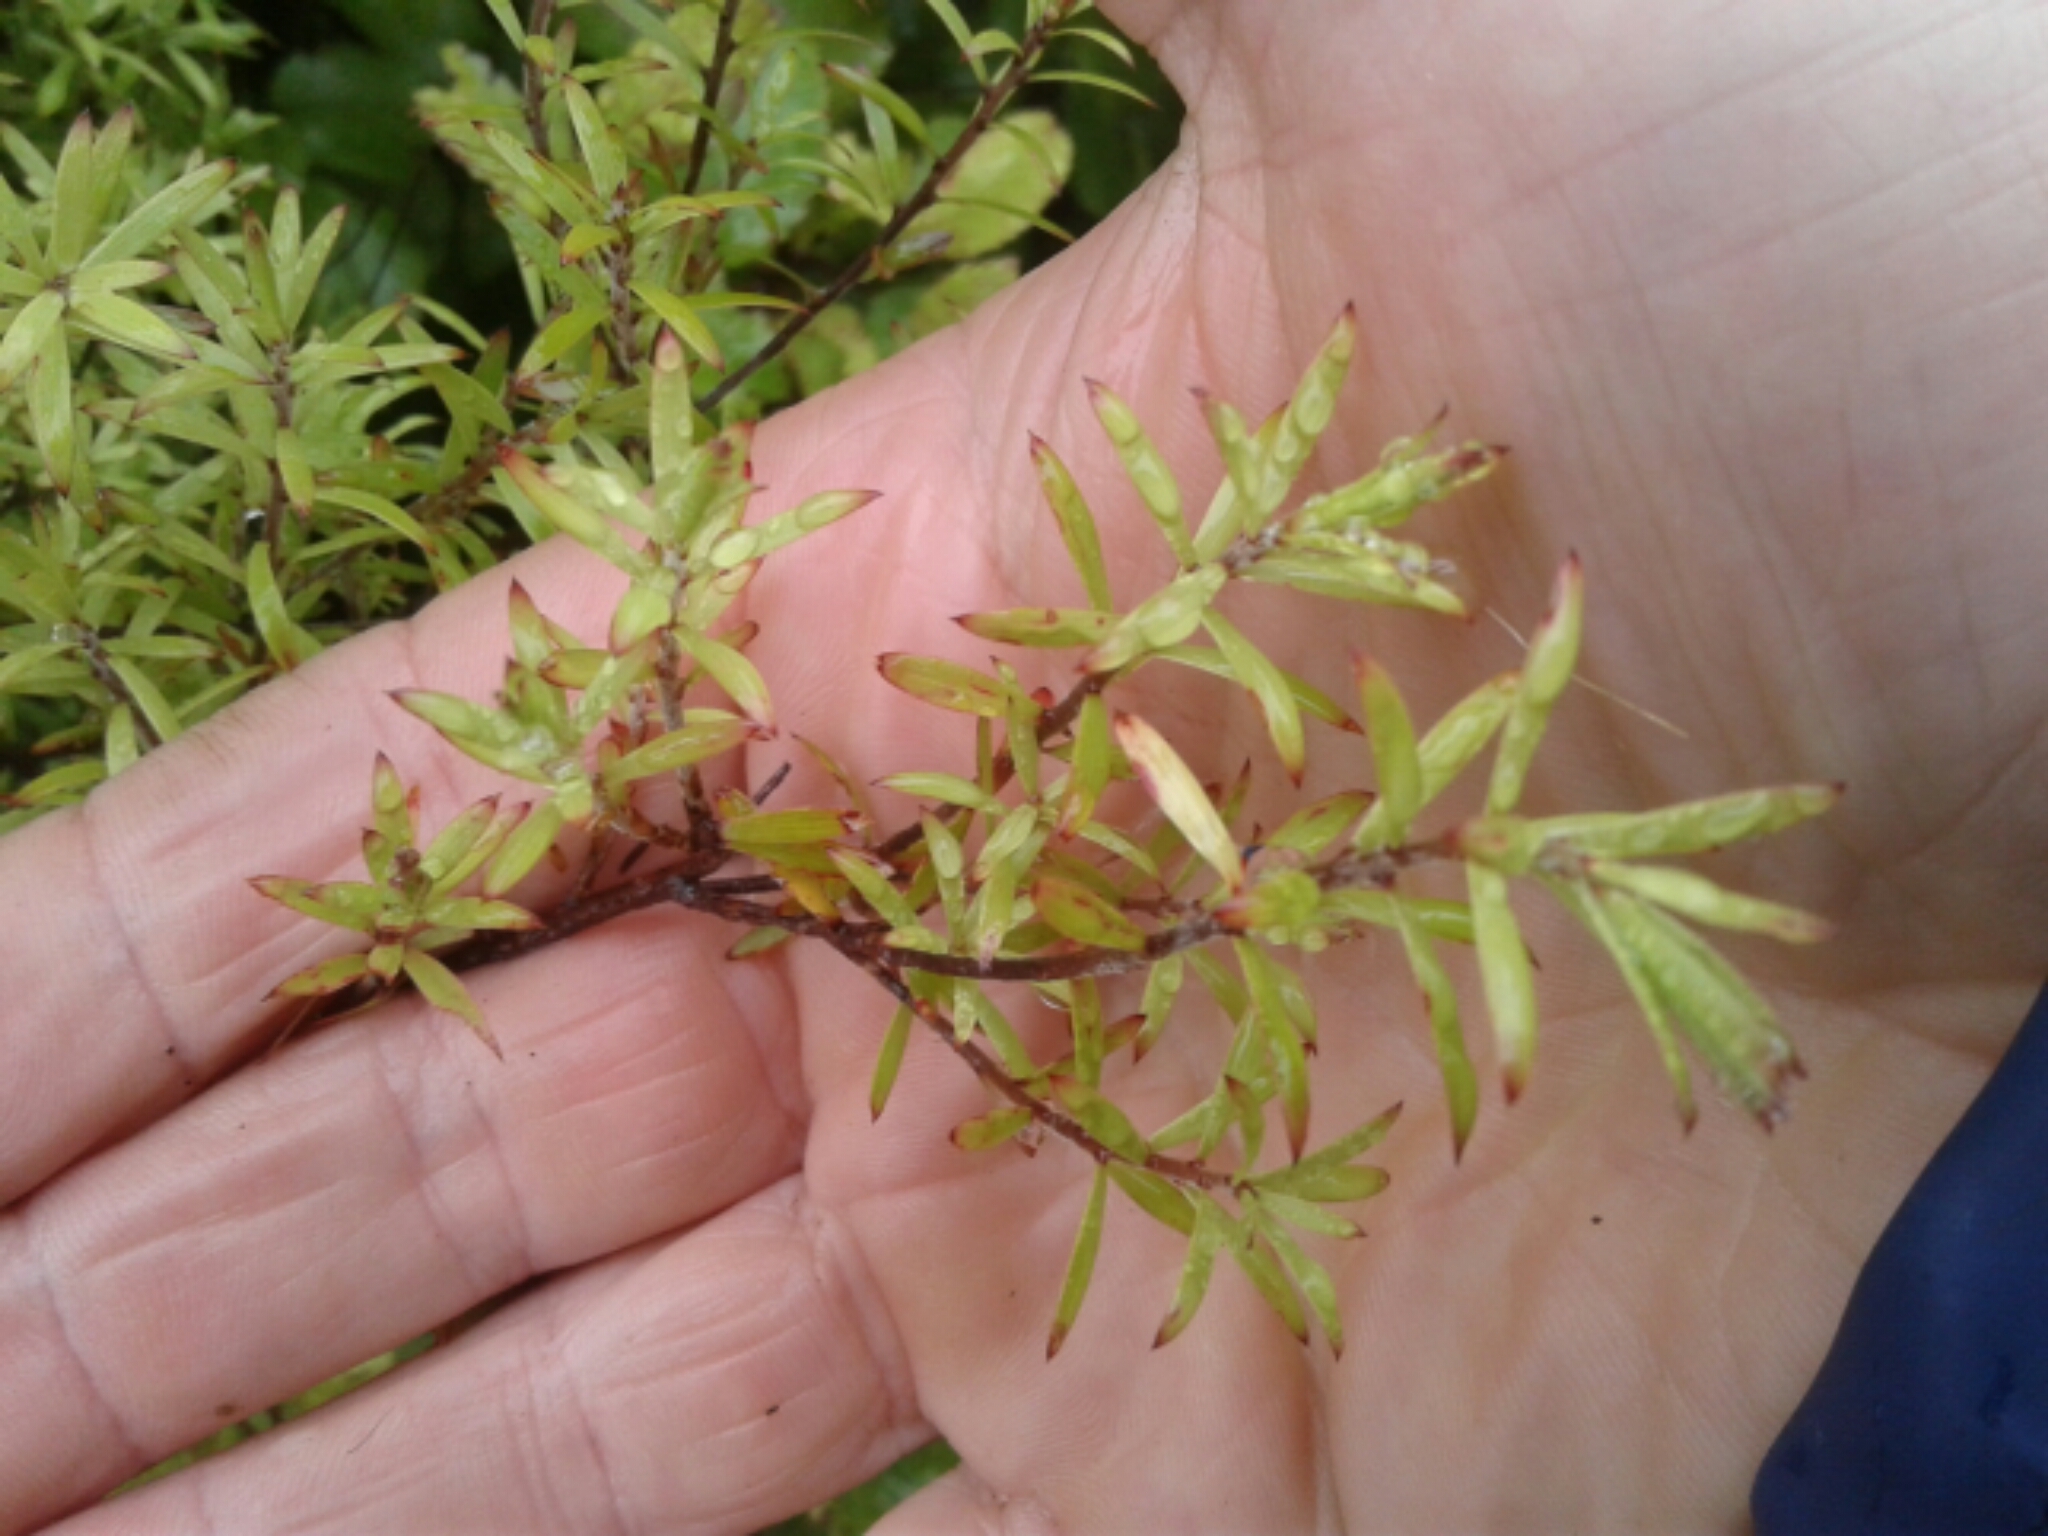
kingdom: Plantae
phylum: Tracheophyta
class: Magnoliopsida
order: Ericales
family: Ericaceae
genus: Leucopogon
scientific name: Leucopogon fasciculatus
